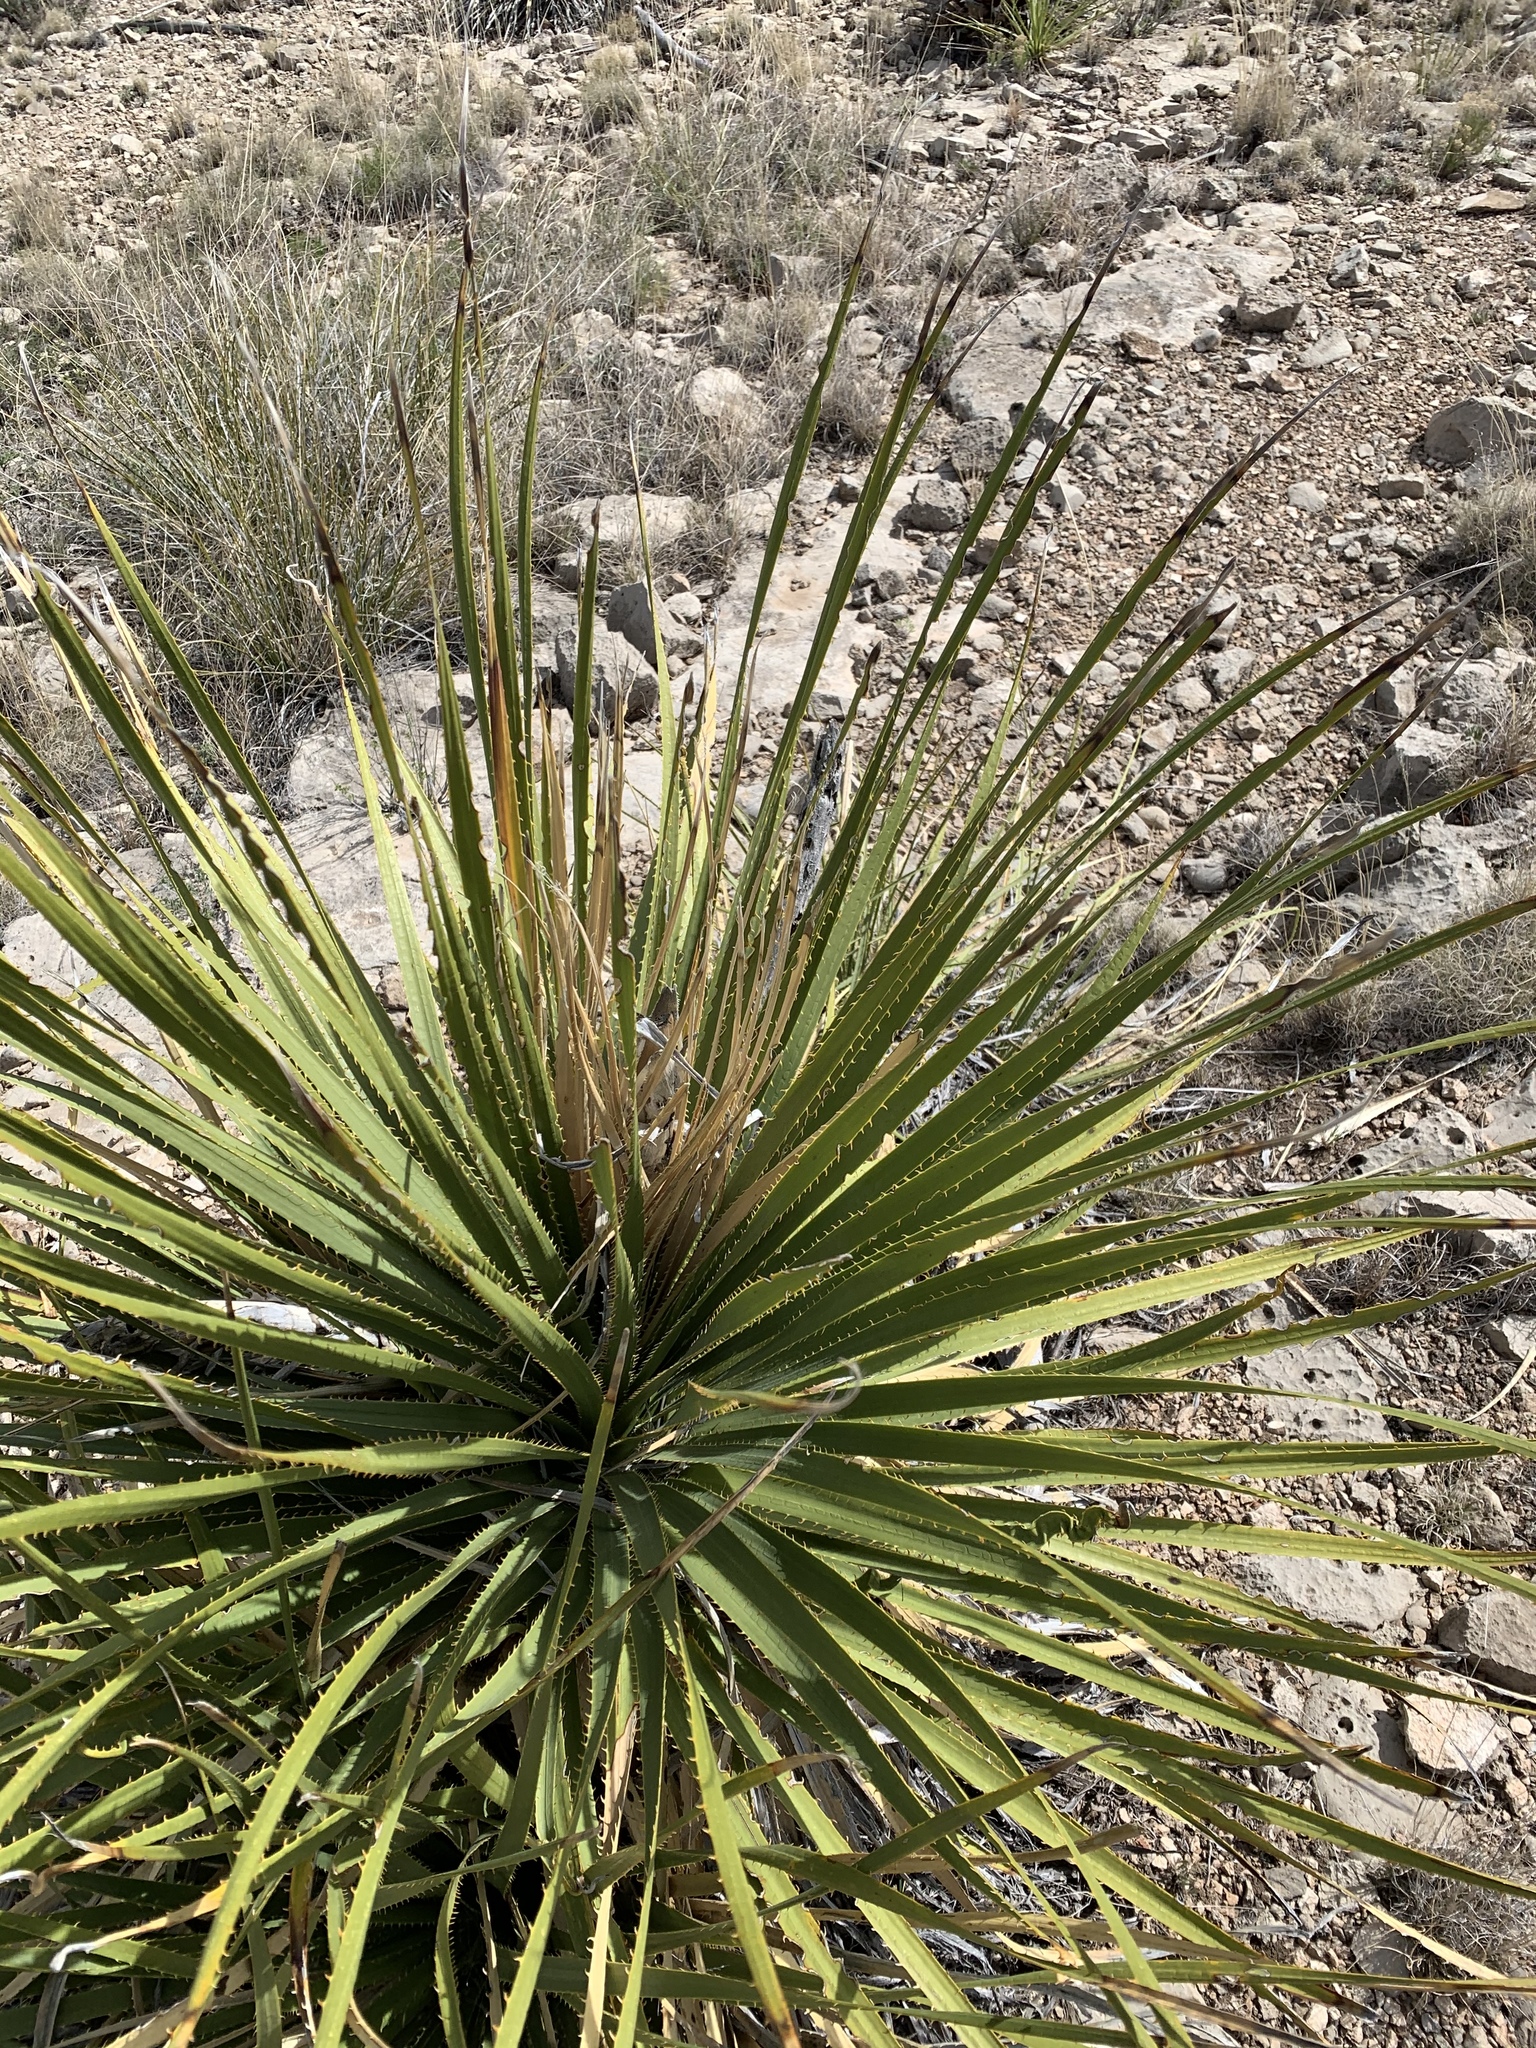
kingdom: Plantae
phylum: Tracheophyta
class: Liliopsida
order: Asparagales
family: Asparagaceae
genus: Dasylirion
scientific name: Dasylirion leiophyllum
